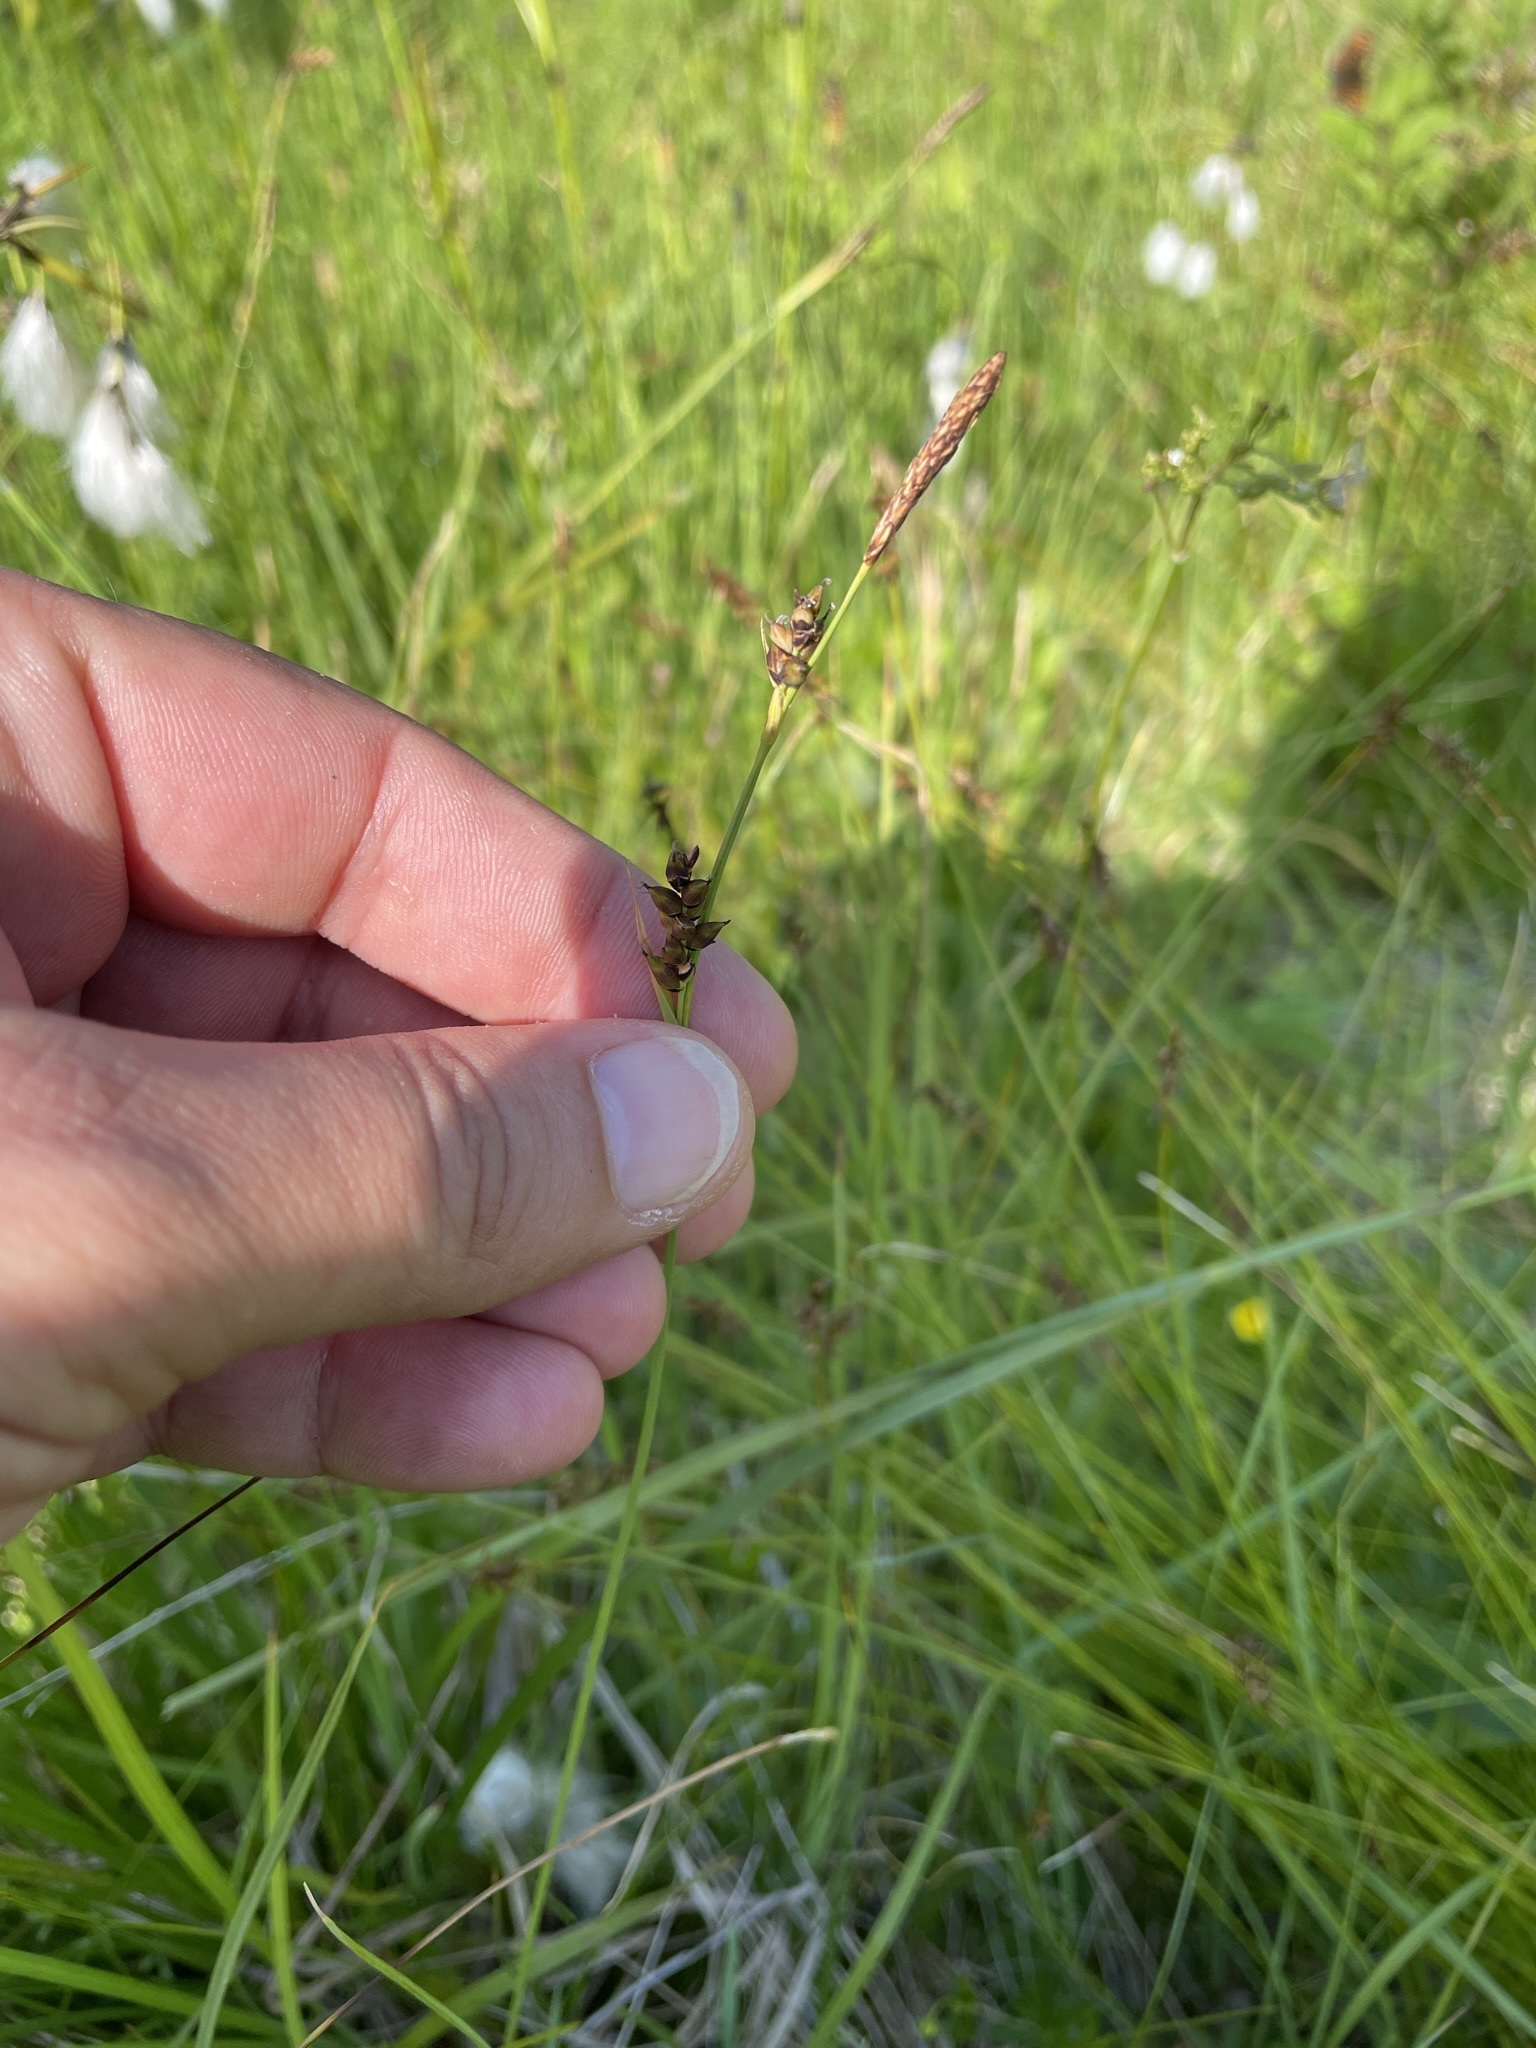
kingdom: Plantae
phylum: Tracheophyta
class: Liliopsida
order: Poales
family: Cyperaceae
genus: Carex
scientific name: Carex panicea
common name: Carnation sedge
